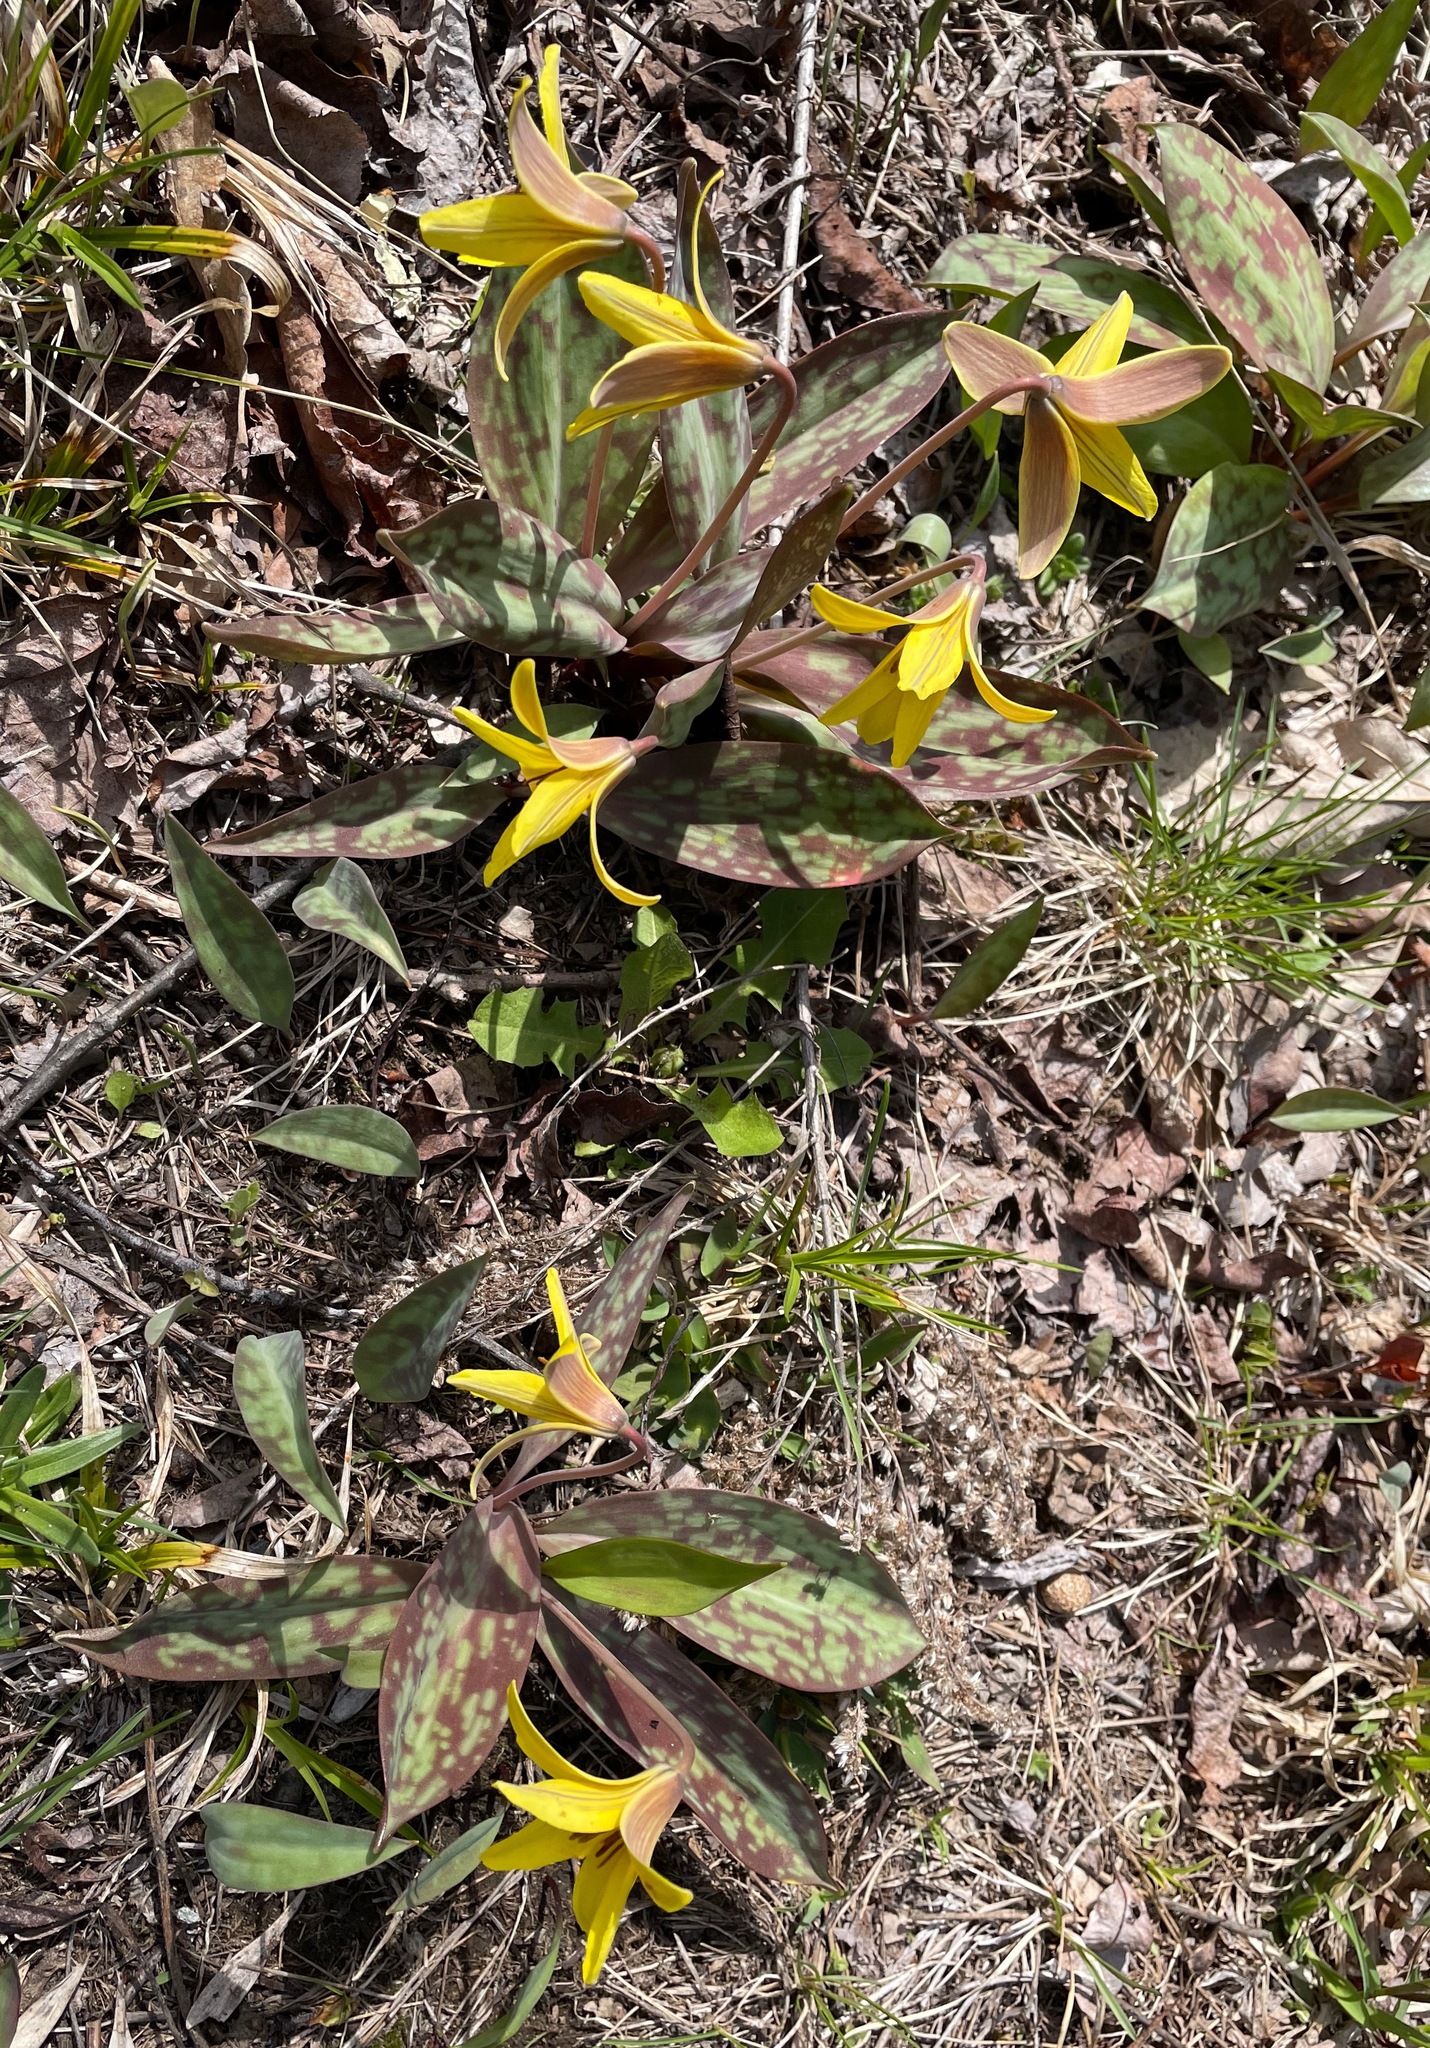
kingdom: Plantae
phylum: Tracheophyta
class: Liliopsida
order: Liliales
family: Liliaceae
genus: Erythronium
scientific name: Erythronium americanum
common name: Yellow adder's-tongue
